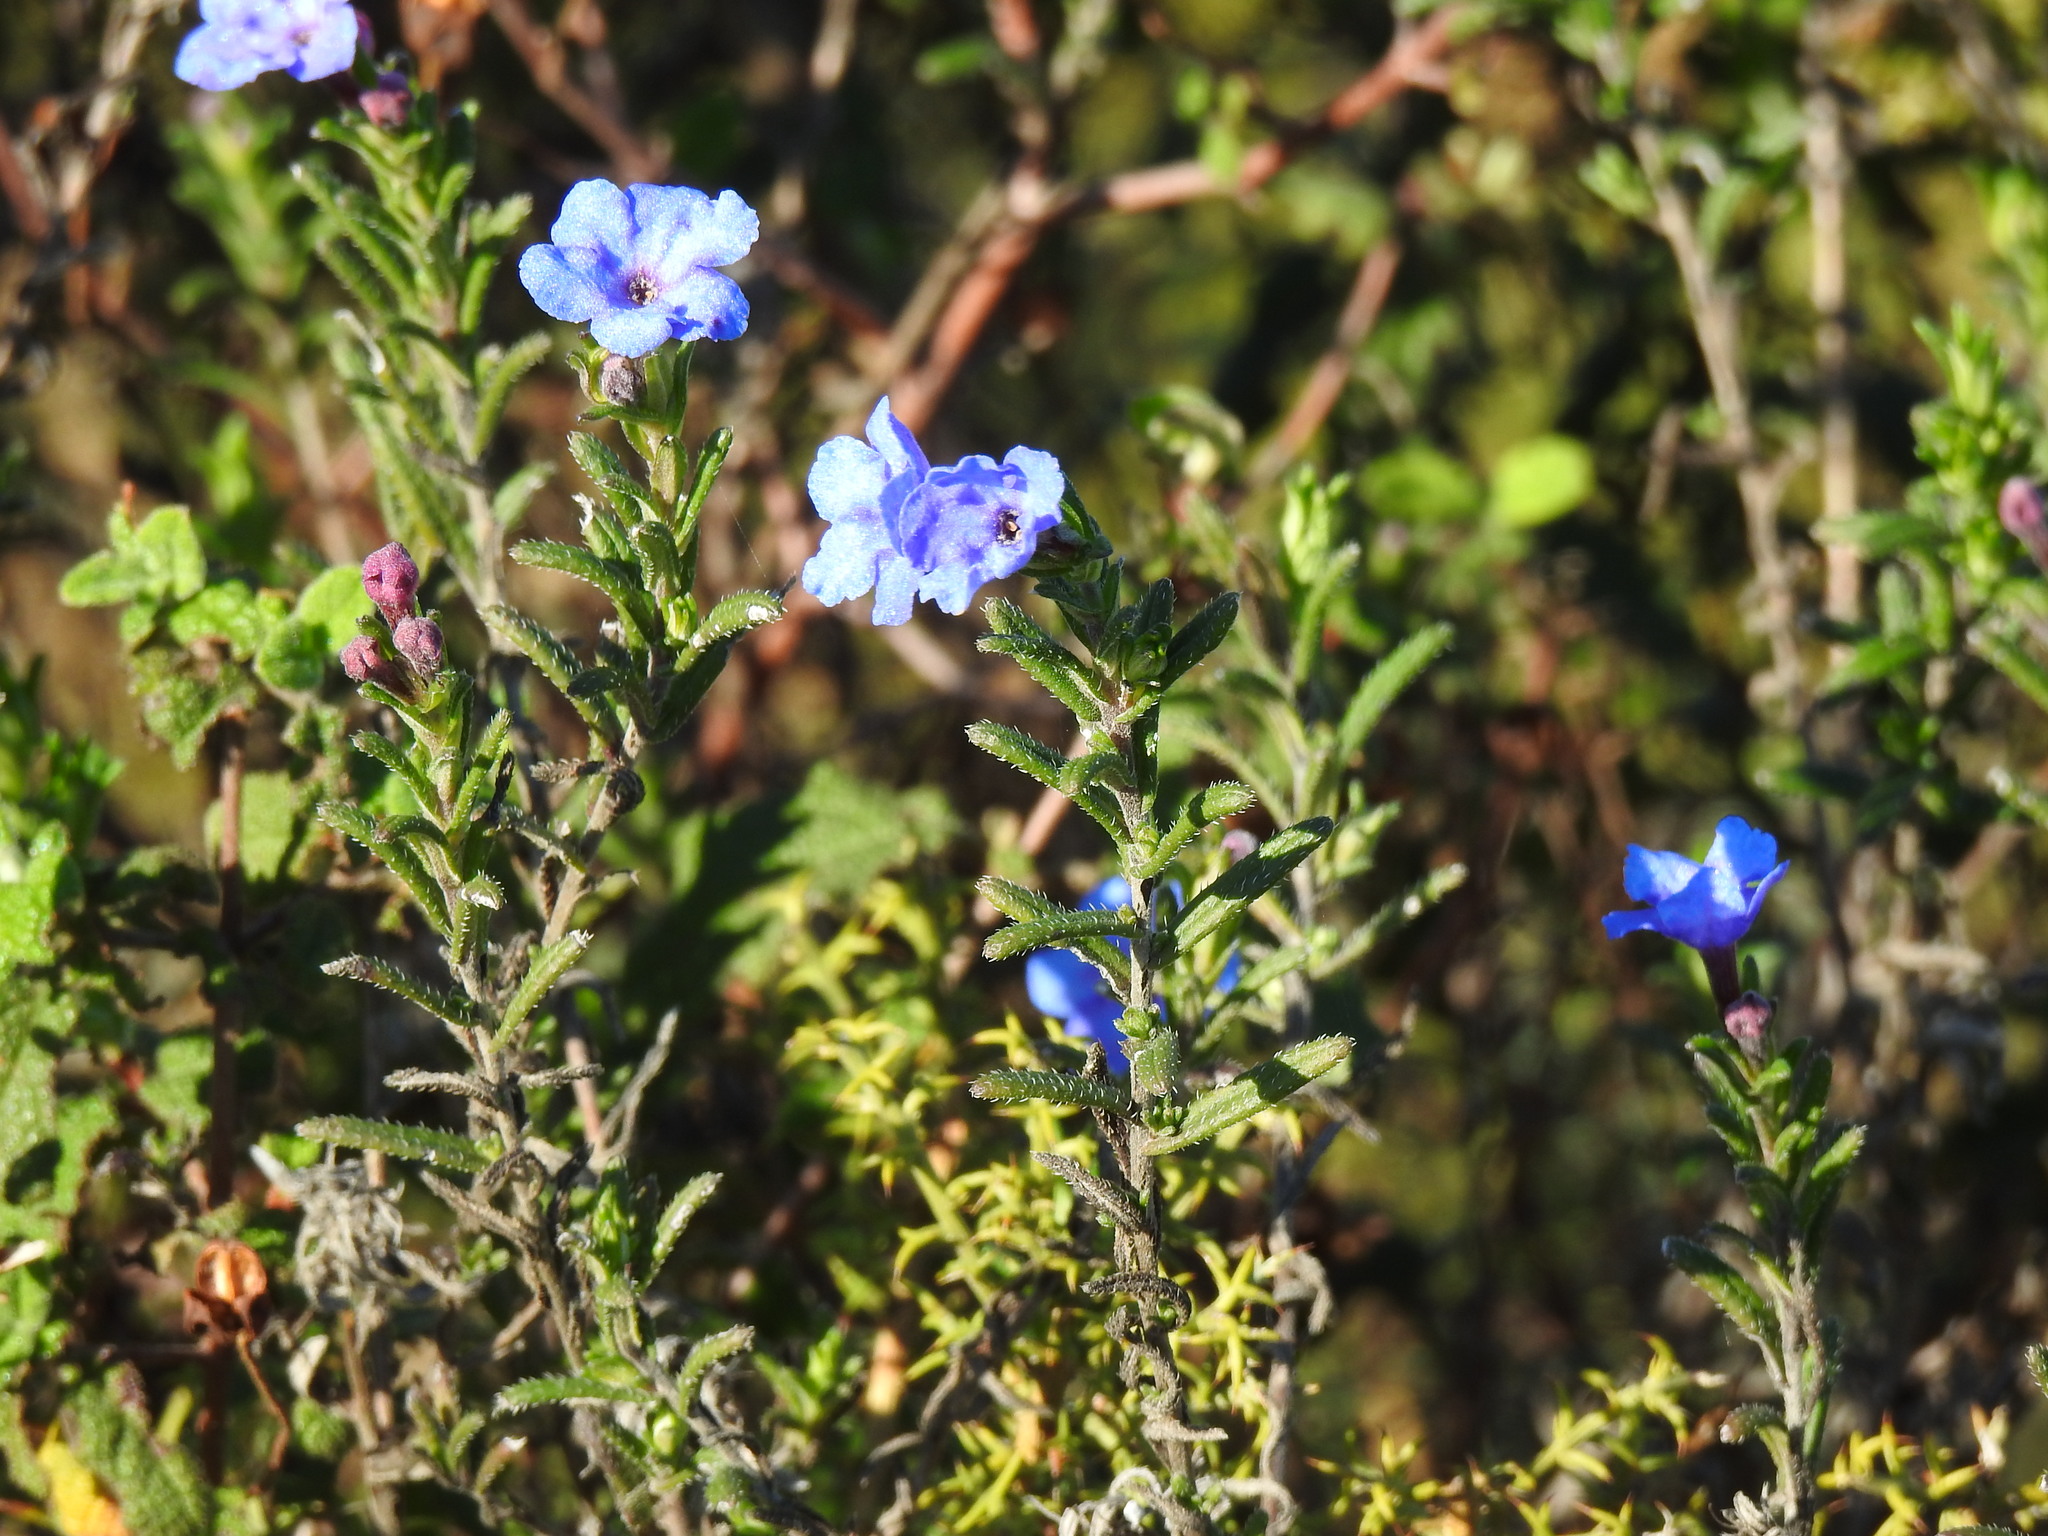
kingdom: Plantae
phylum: Tracheophyta
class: Magnoliopsida
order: Boraginales
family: Boraginaceae
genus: Glandora
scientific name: Glandora prostrata
